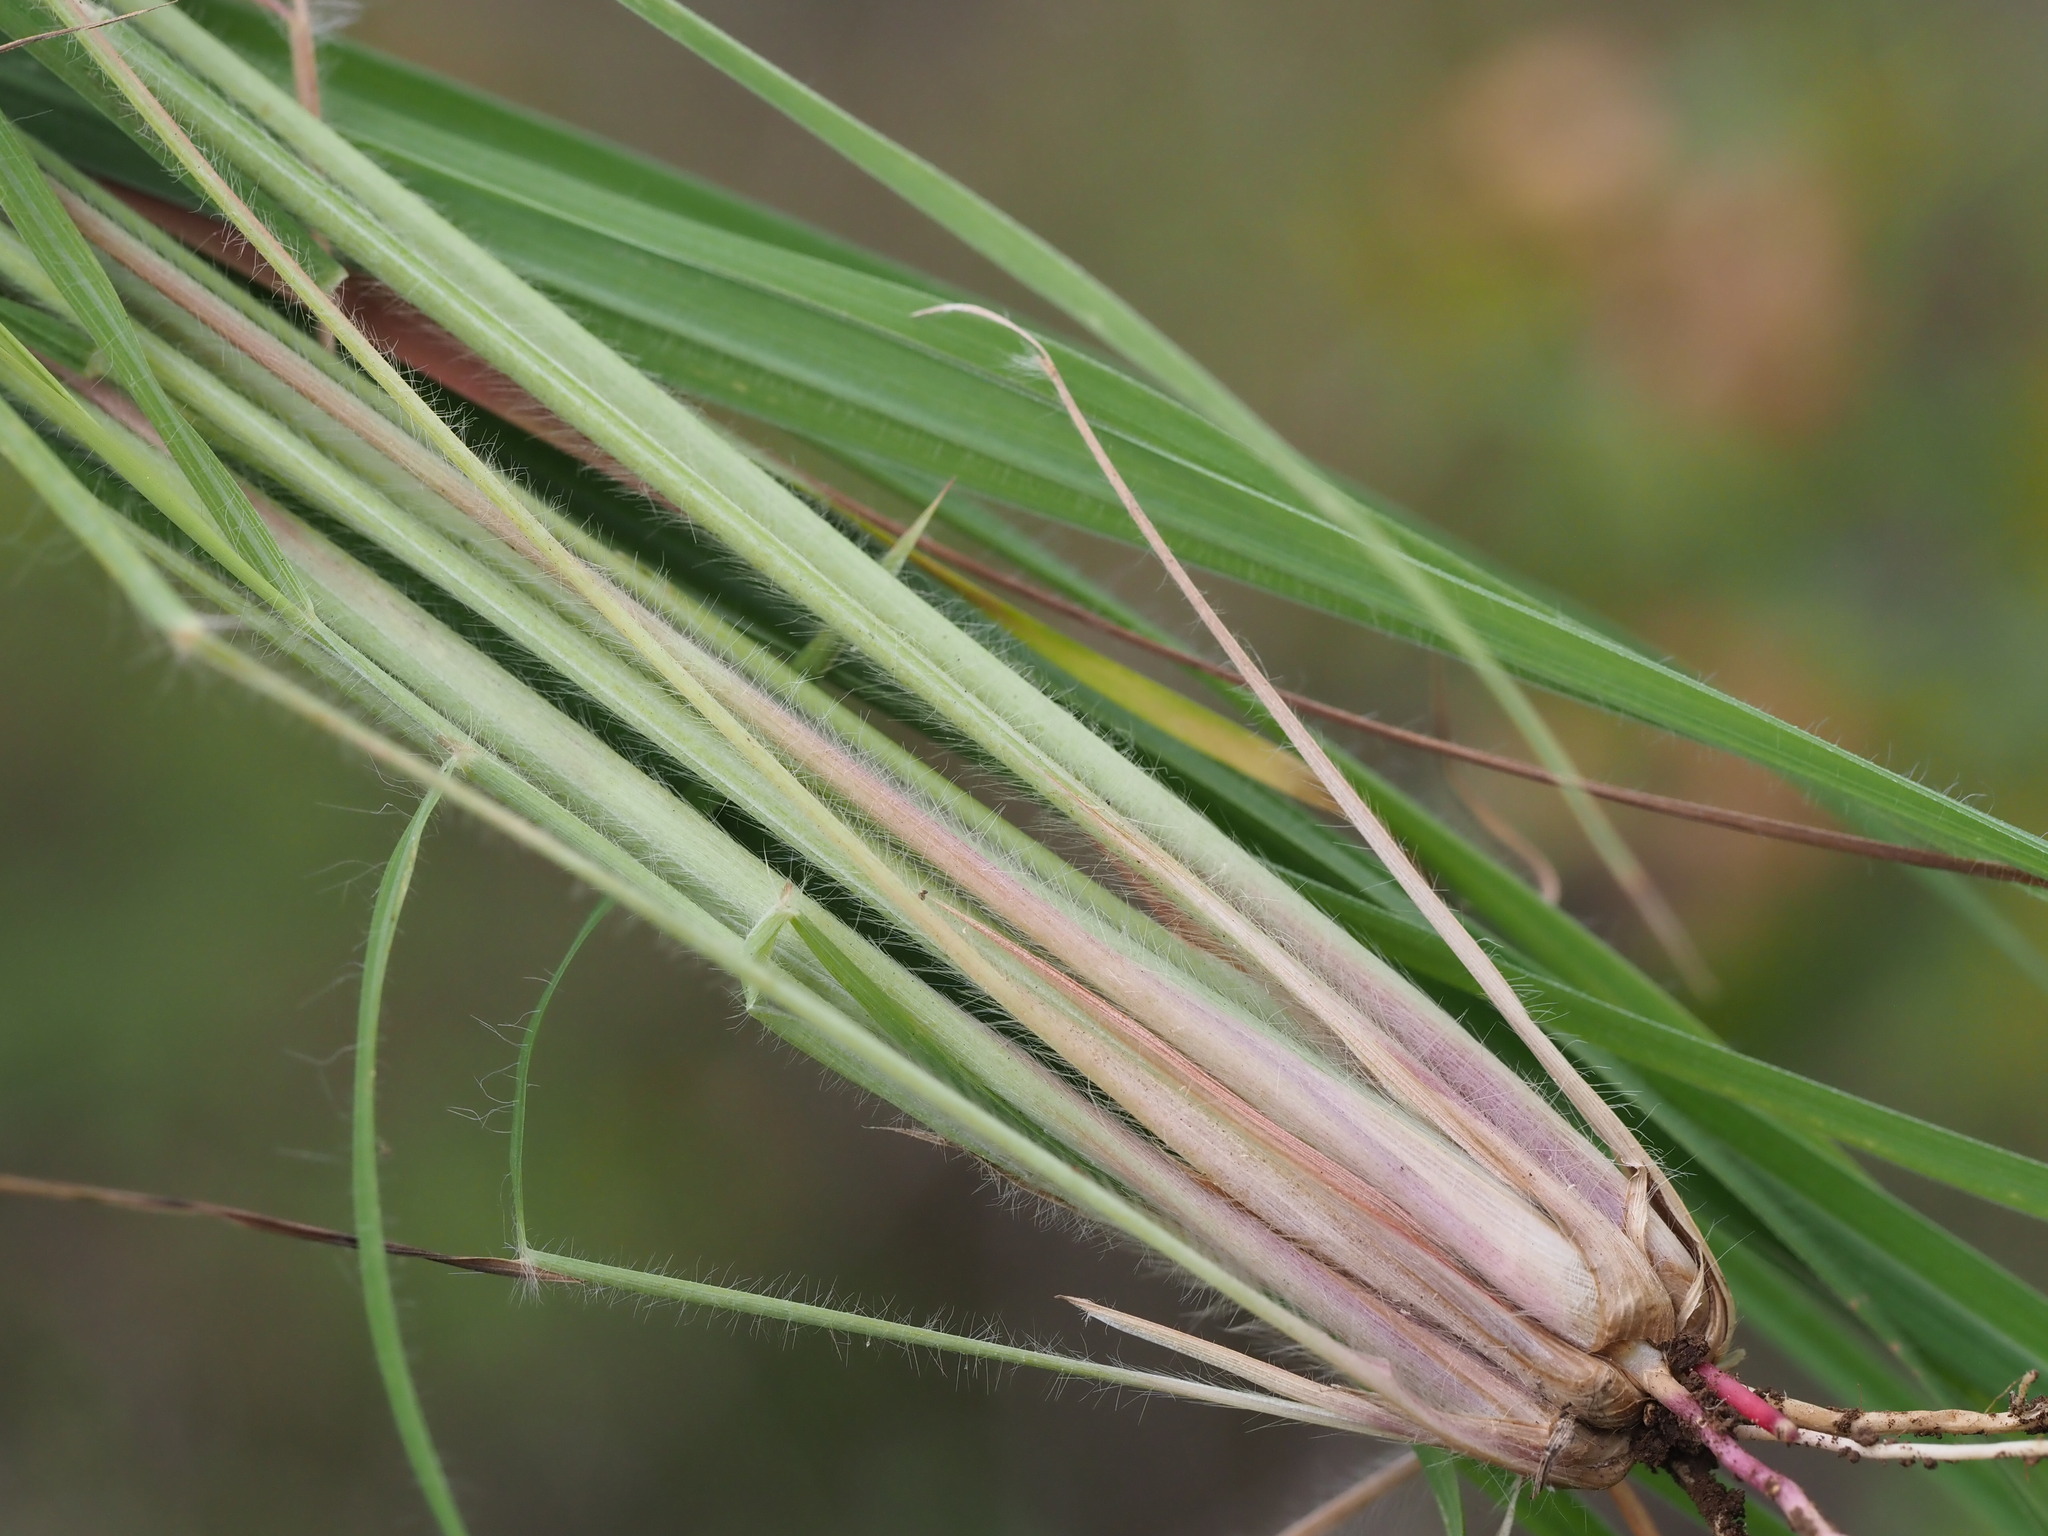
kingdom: Plantae
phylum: Tracheophyta
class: Liliopsida
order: Poales
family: Poaceae
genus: Hyparrhenia
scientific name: Hyparrhenia hirta
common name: Thatching grass
